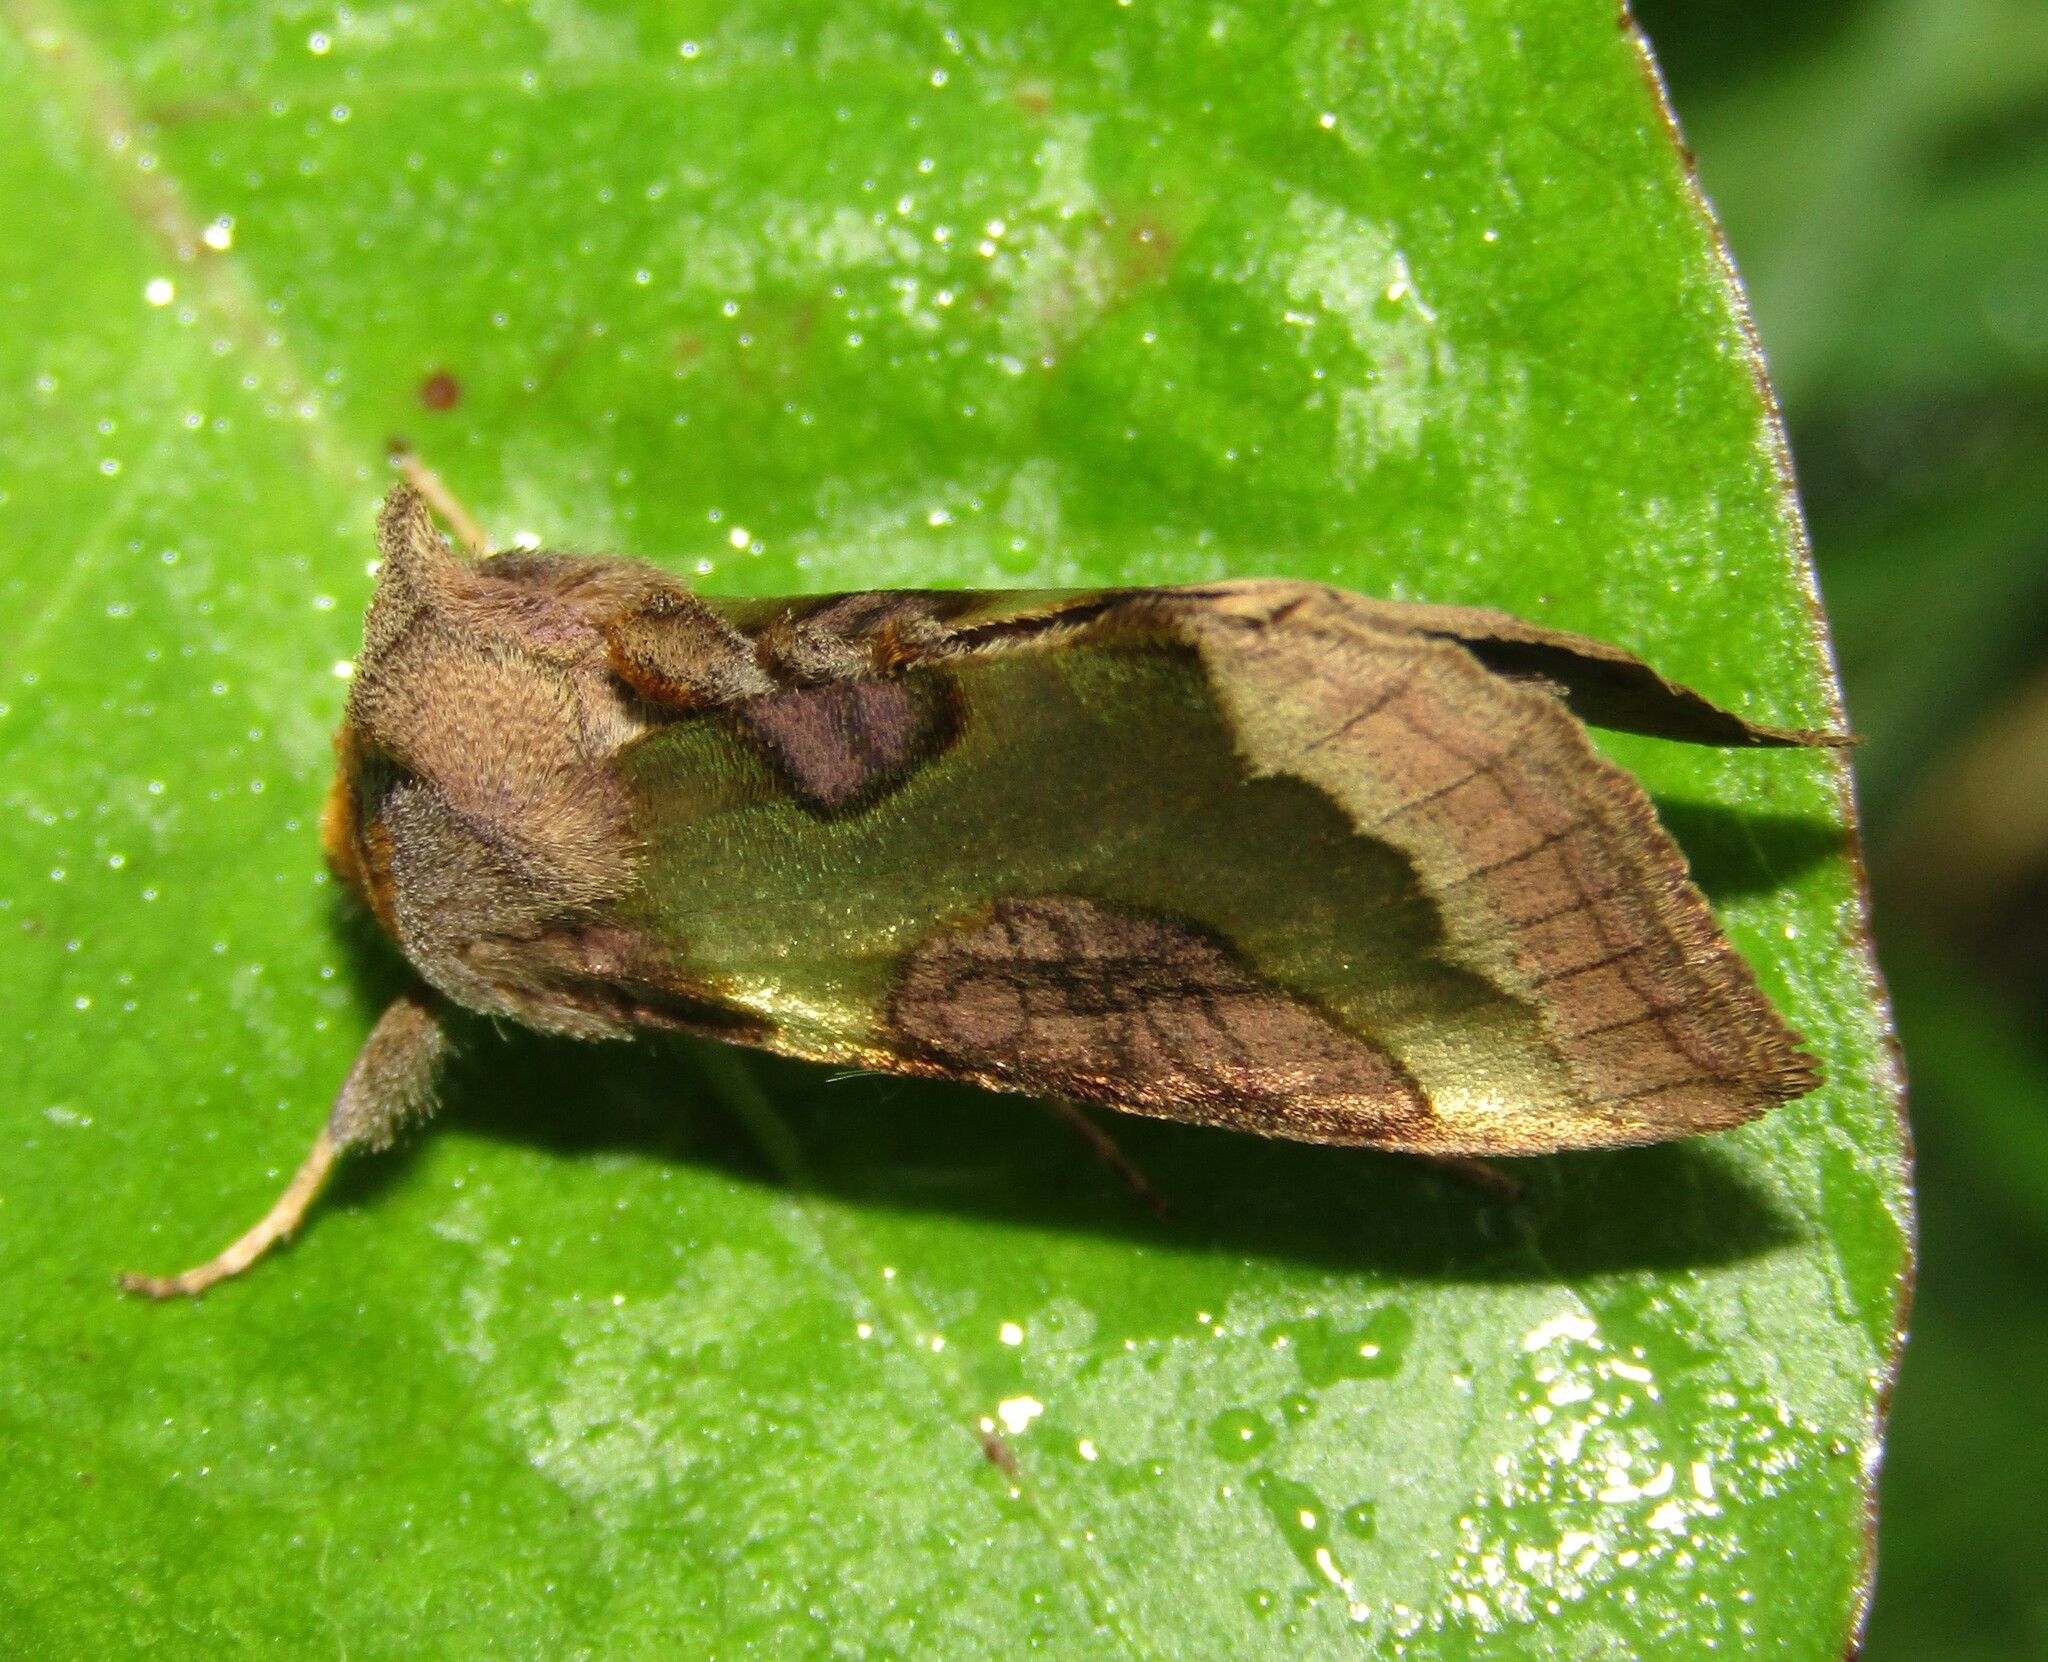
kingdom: Animalia
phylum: Arthropoda
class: Insecta
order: Lepidoptera
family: Noctuidae
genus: Diachrysia
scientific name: Diachrysia stenochrysis
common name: Cryptic burnished brass
